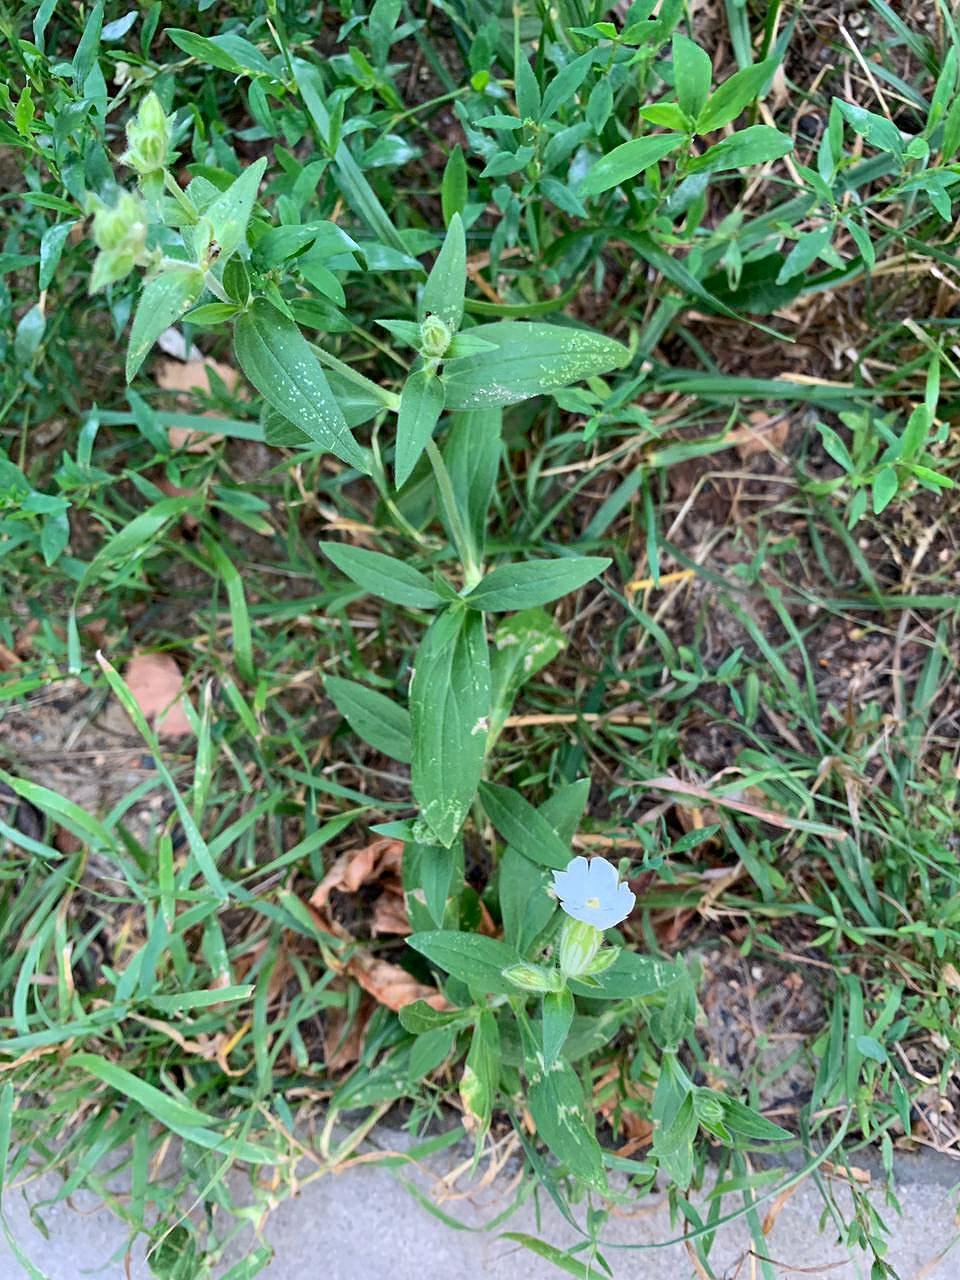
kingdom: Plantae
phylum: Tracheophyta
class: Magnoliopsida
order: Caryophyllales
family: Caryophyllaceae
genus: Silene
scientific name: Silene latifolia
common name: White campion
